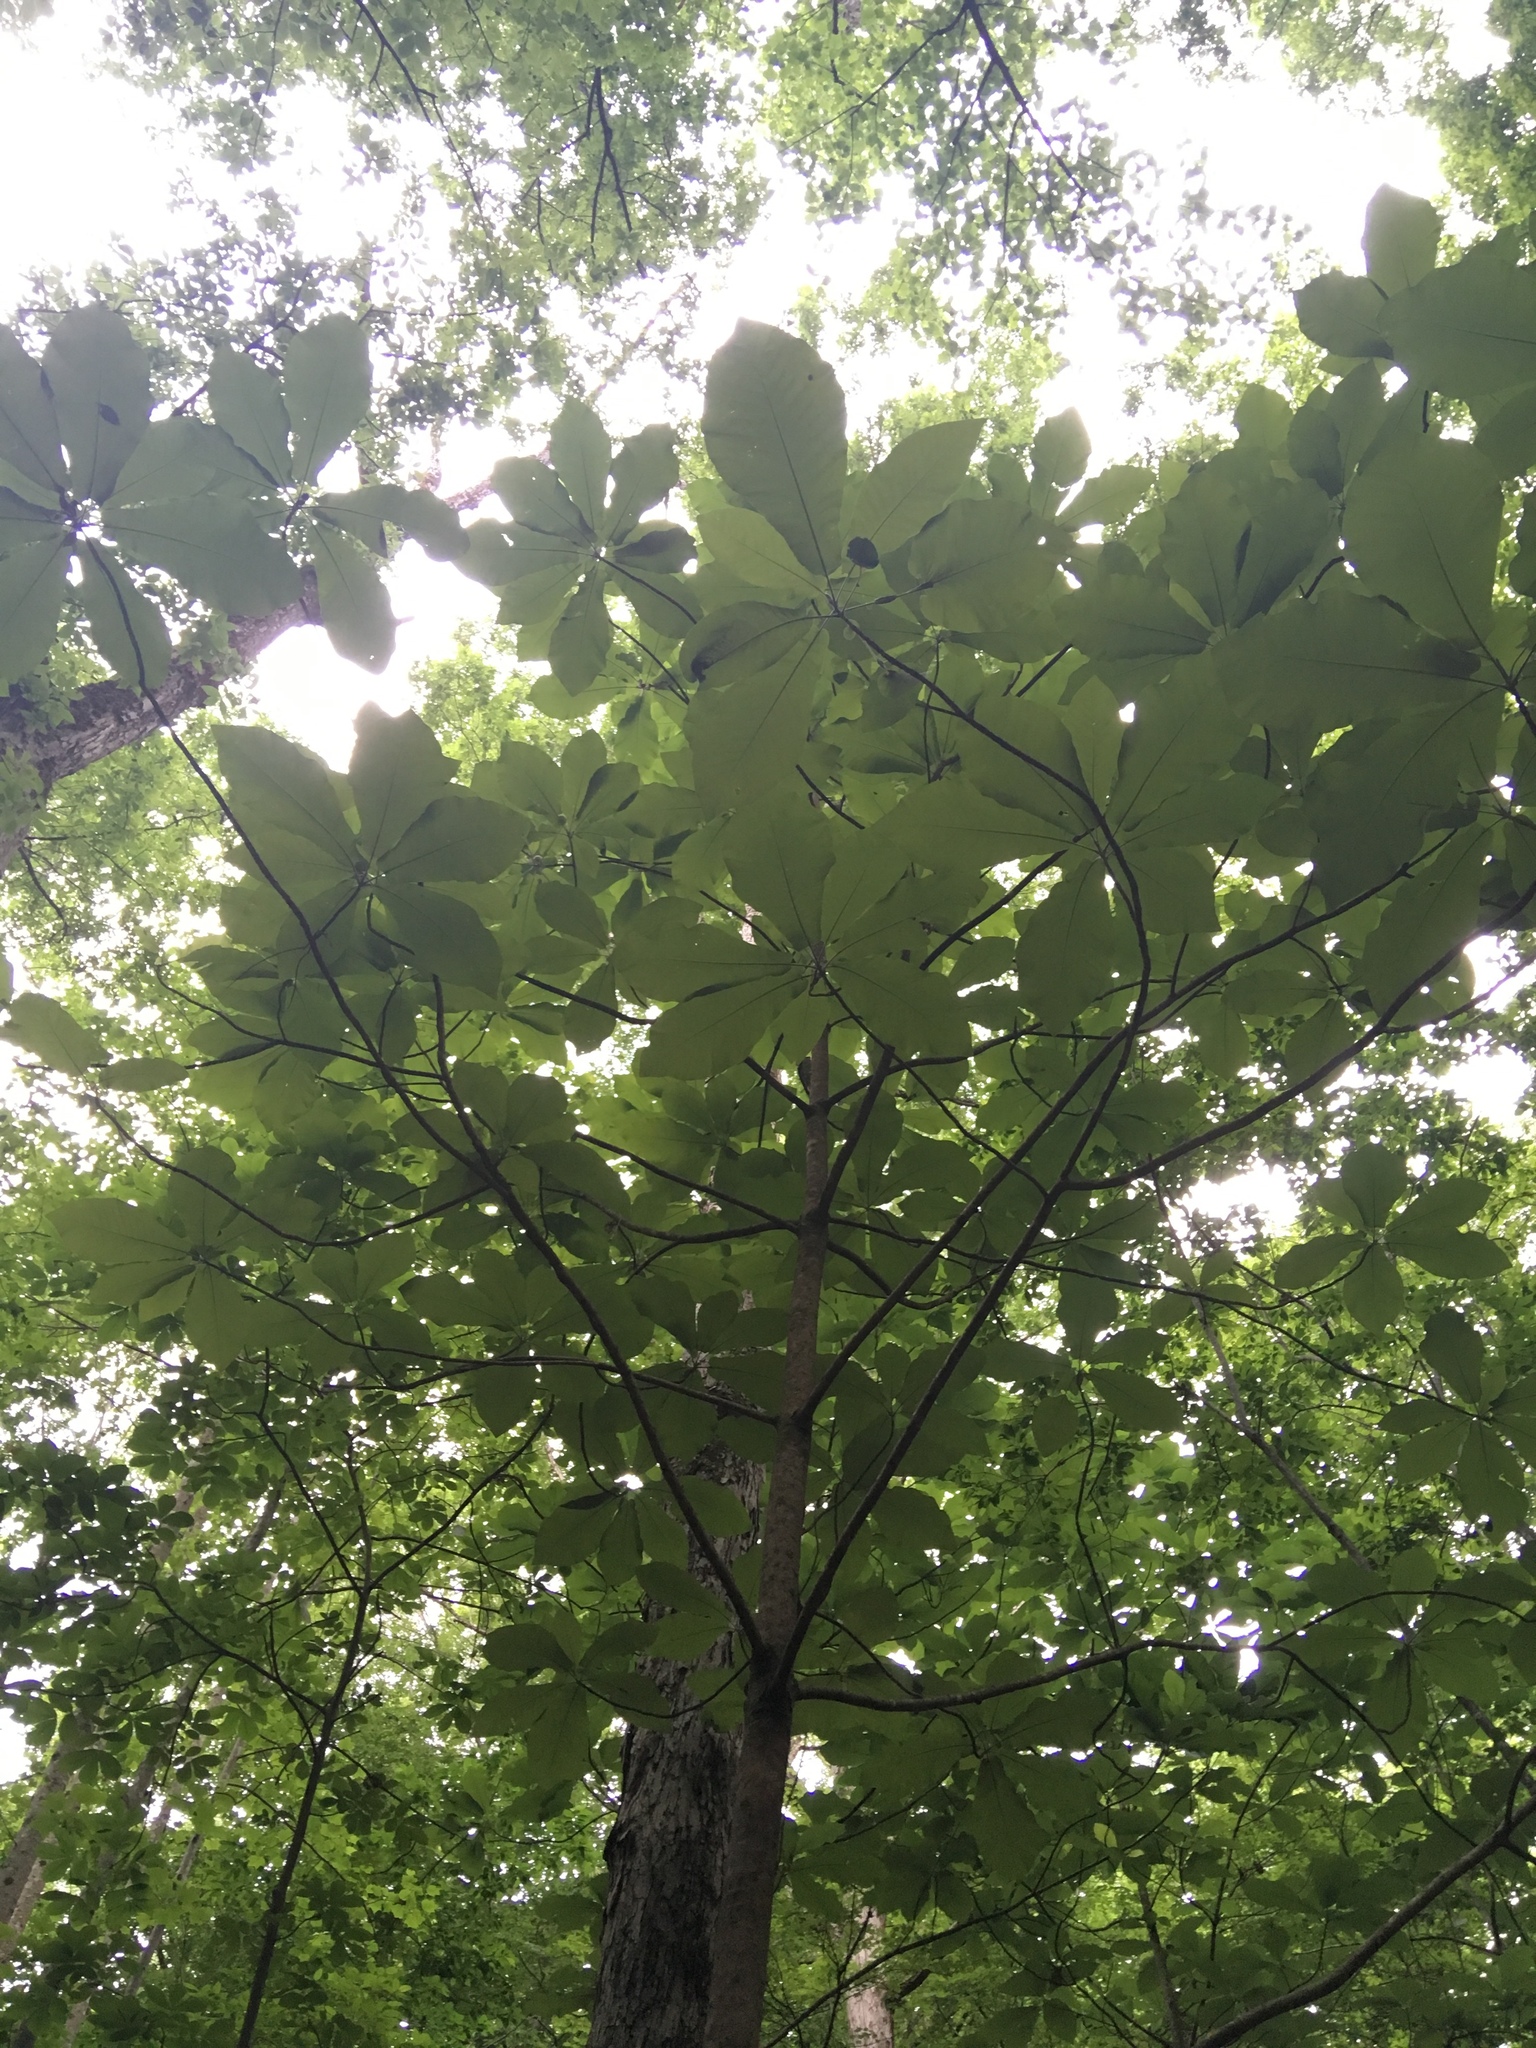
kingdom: Plantae
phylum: Tracheophyta
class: Magnoliopsida
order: Magnoliales
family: Magnoliaceae
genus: Magnolia
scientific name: Magnolia macrophylla
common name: Big-leaf magnolia
